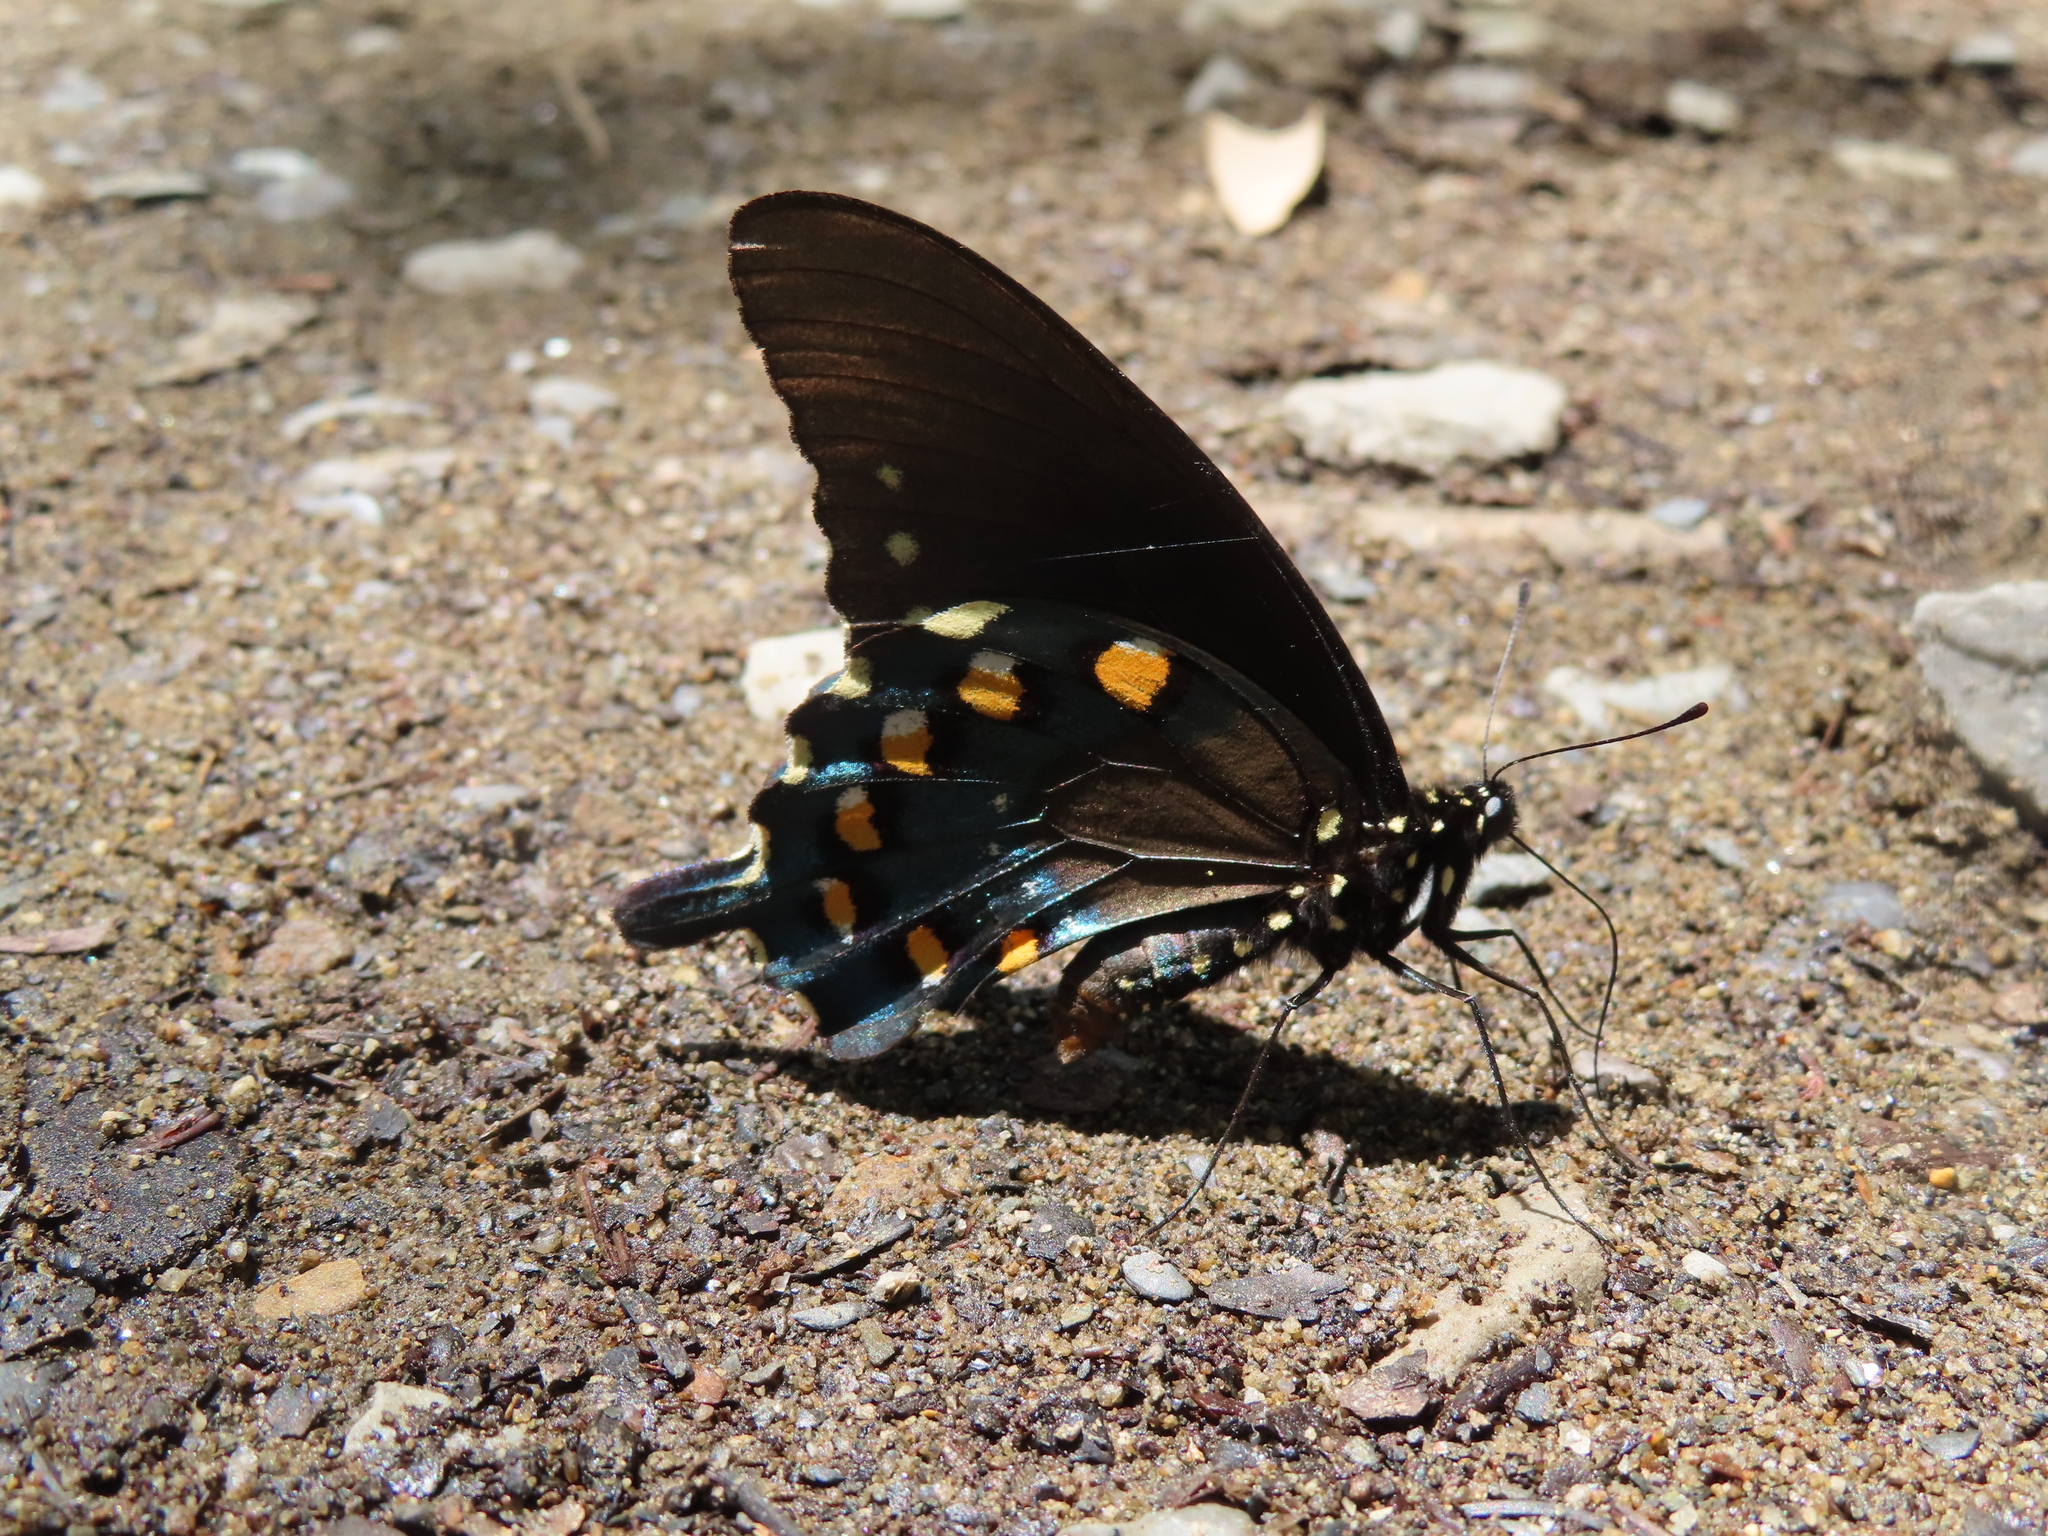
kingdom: Animalia
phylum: Arthropoda
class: Insecta
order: Lepidoptera
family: Papilionidae
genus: Battus
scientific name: Battus philenor
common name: Pipevine swallowtail
